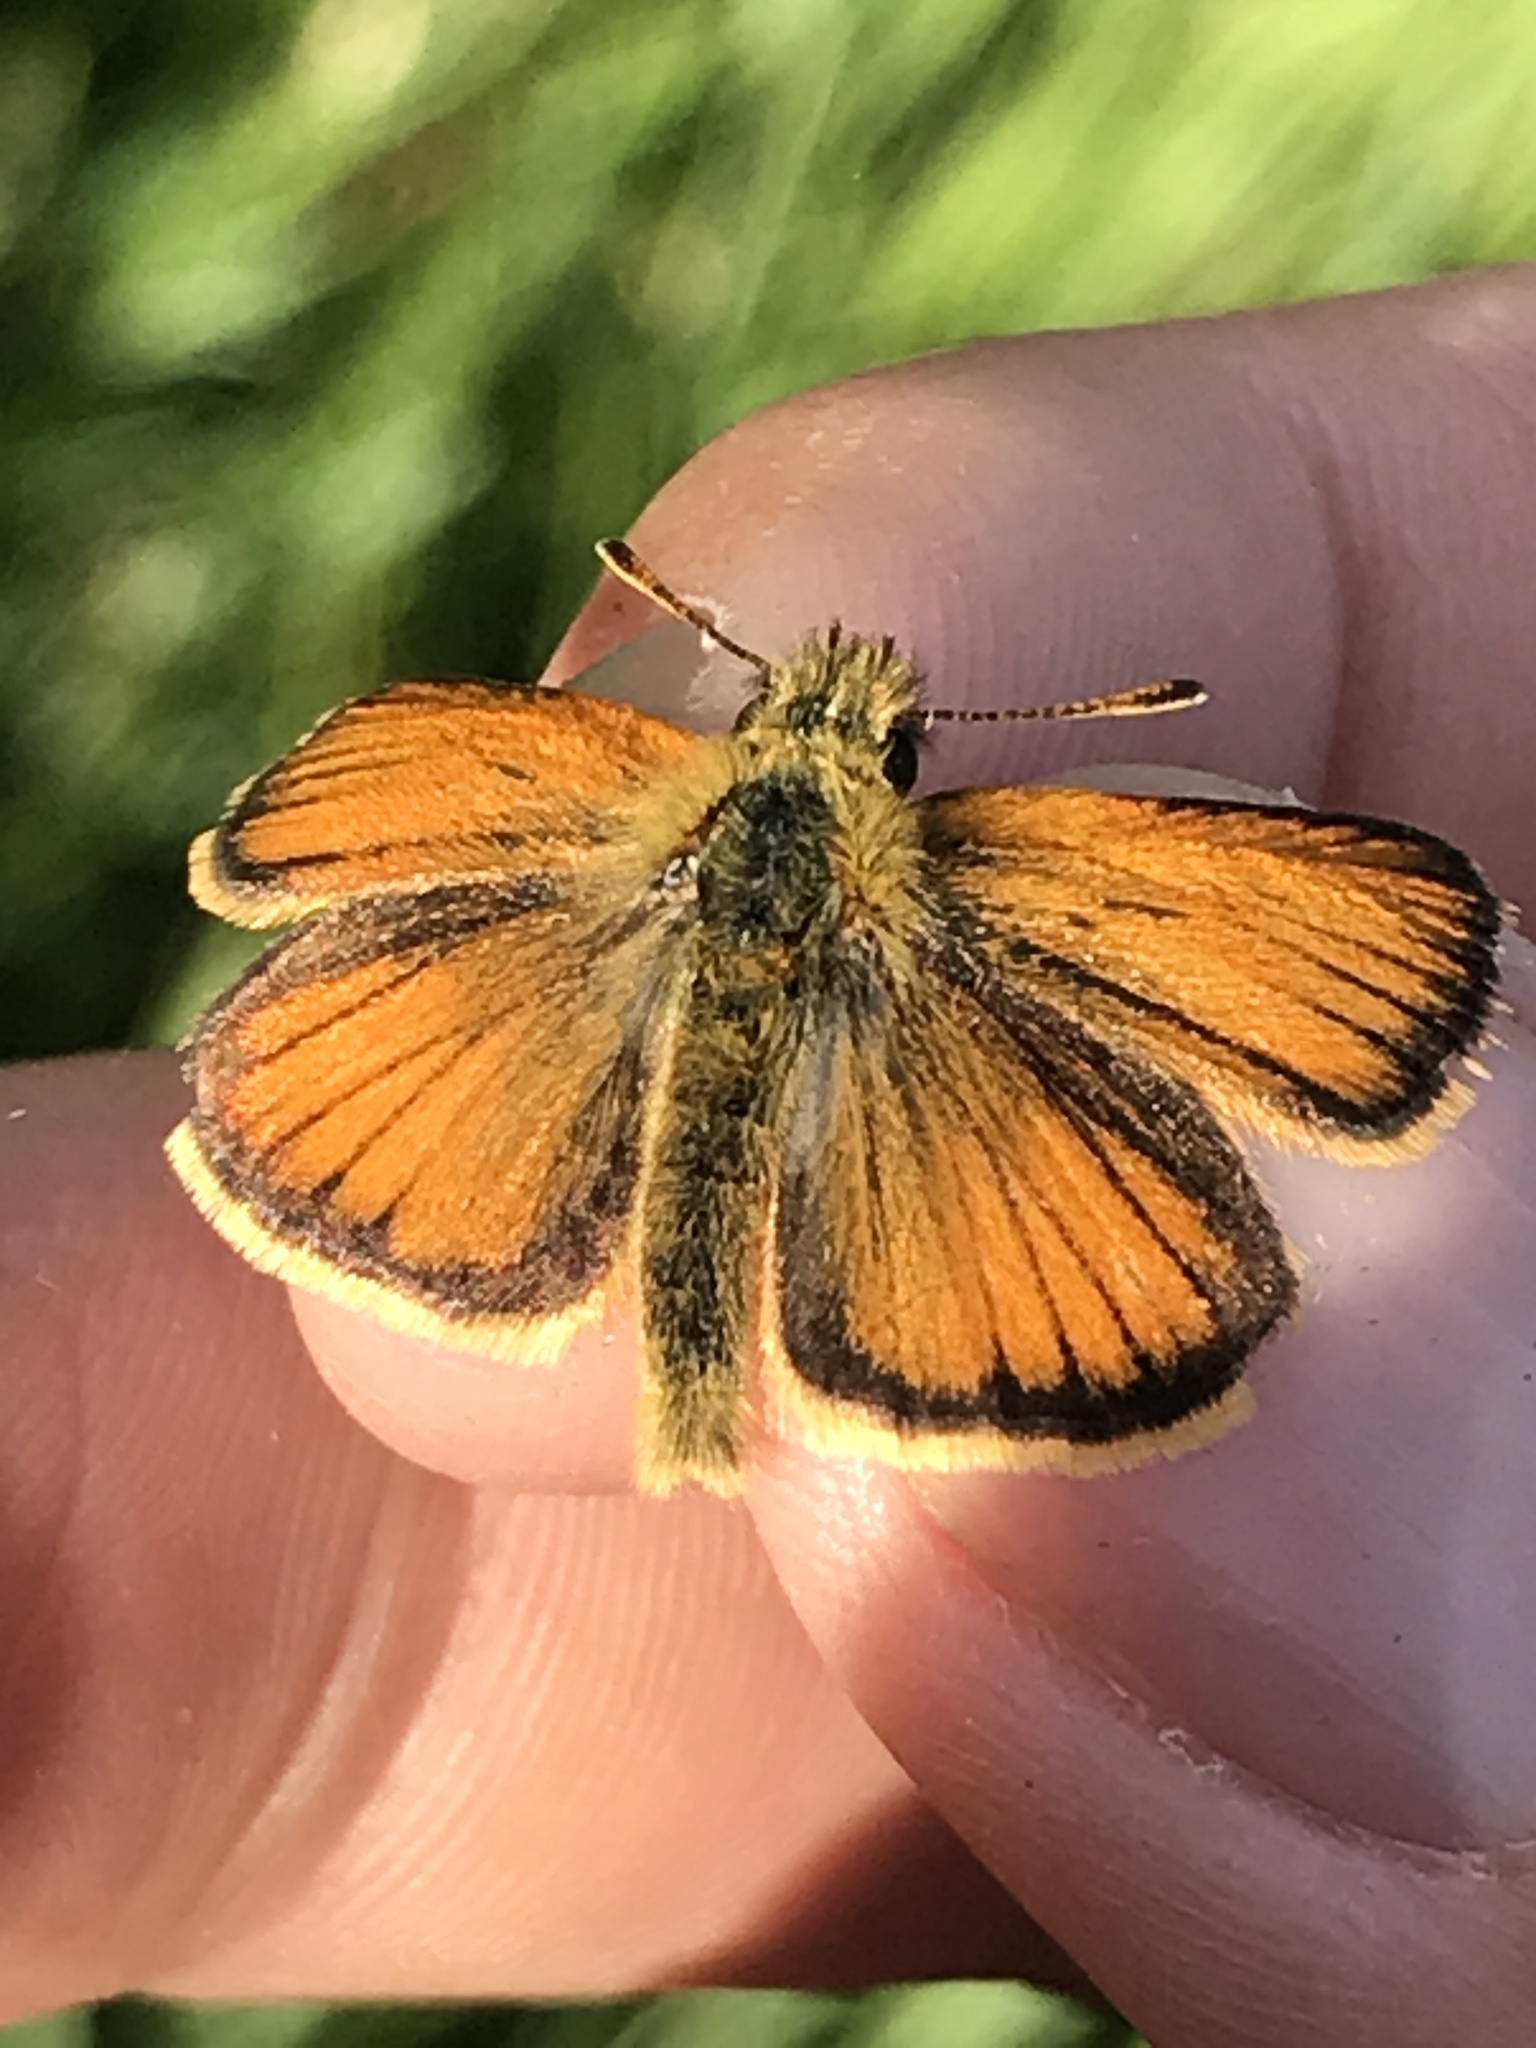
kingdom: Animalia
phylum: Arthropoda
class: Insecta
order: Lepidoptera
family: Hesperiidae
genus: Thymelicus
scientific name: Thymelicus lineola
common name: Essex skipper
